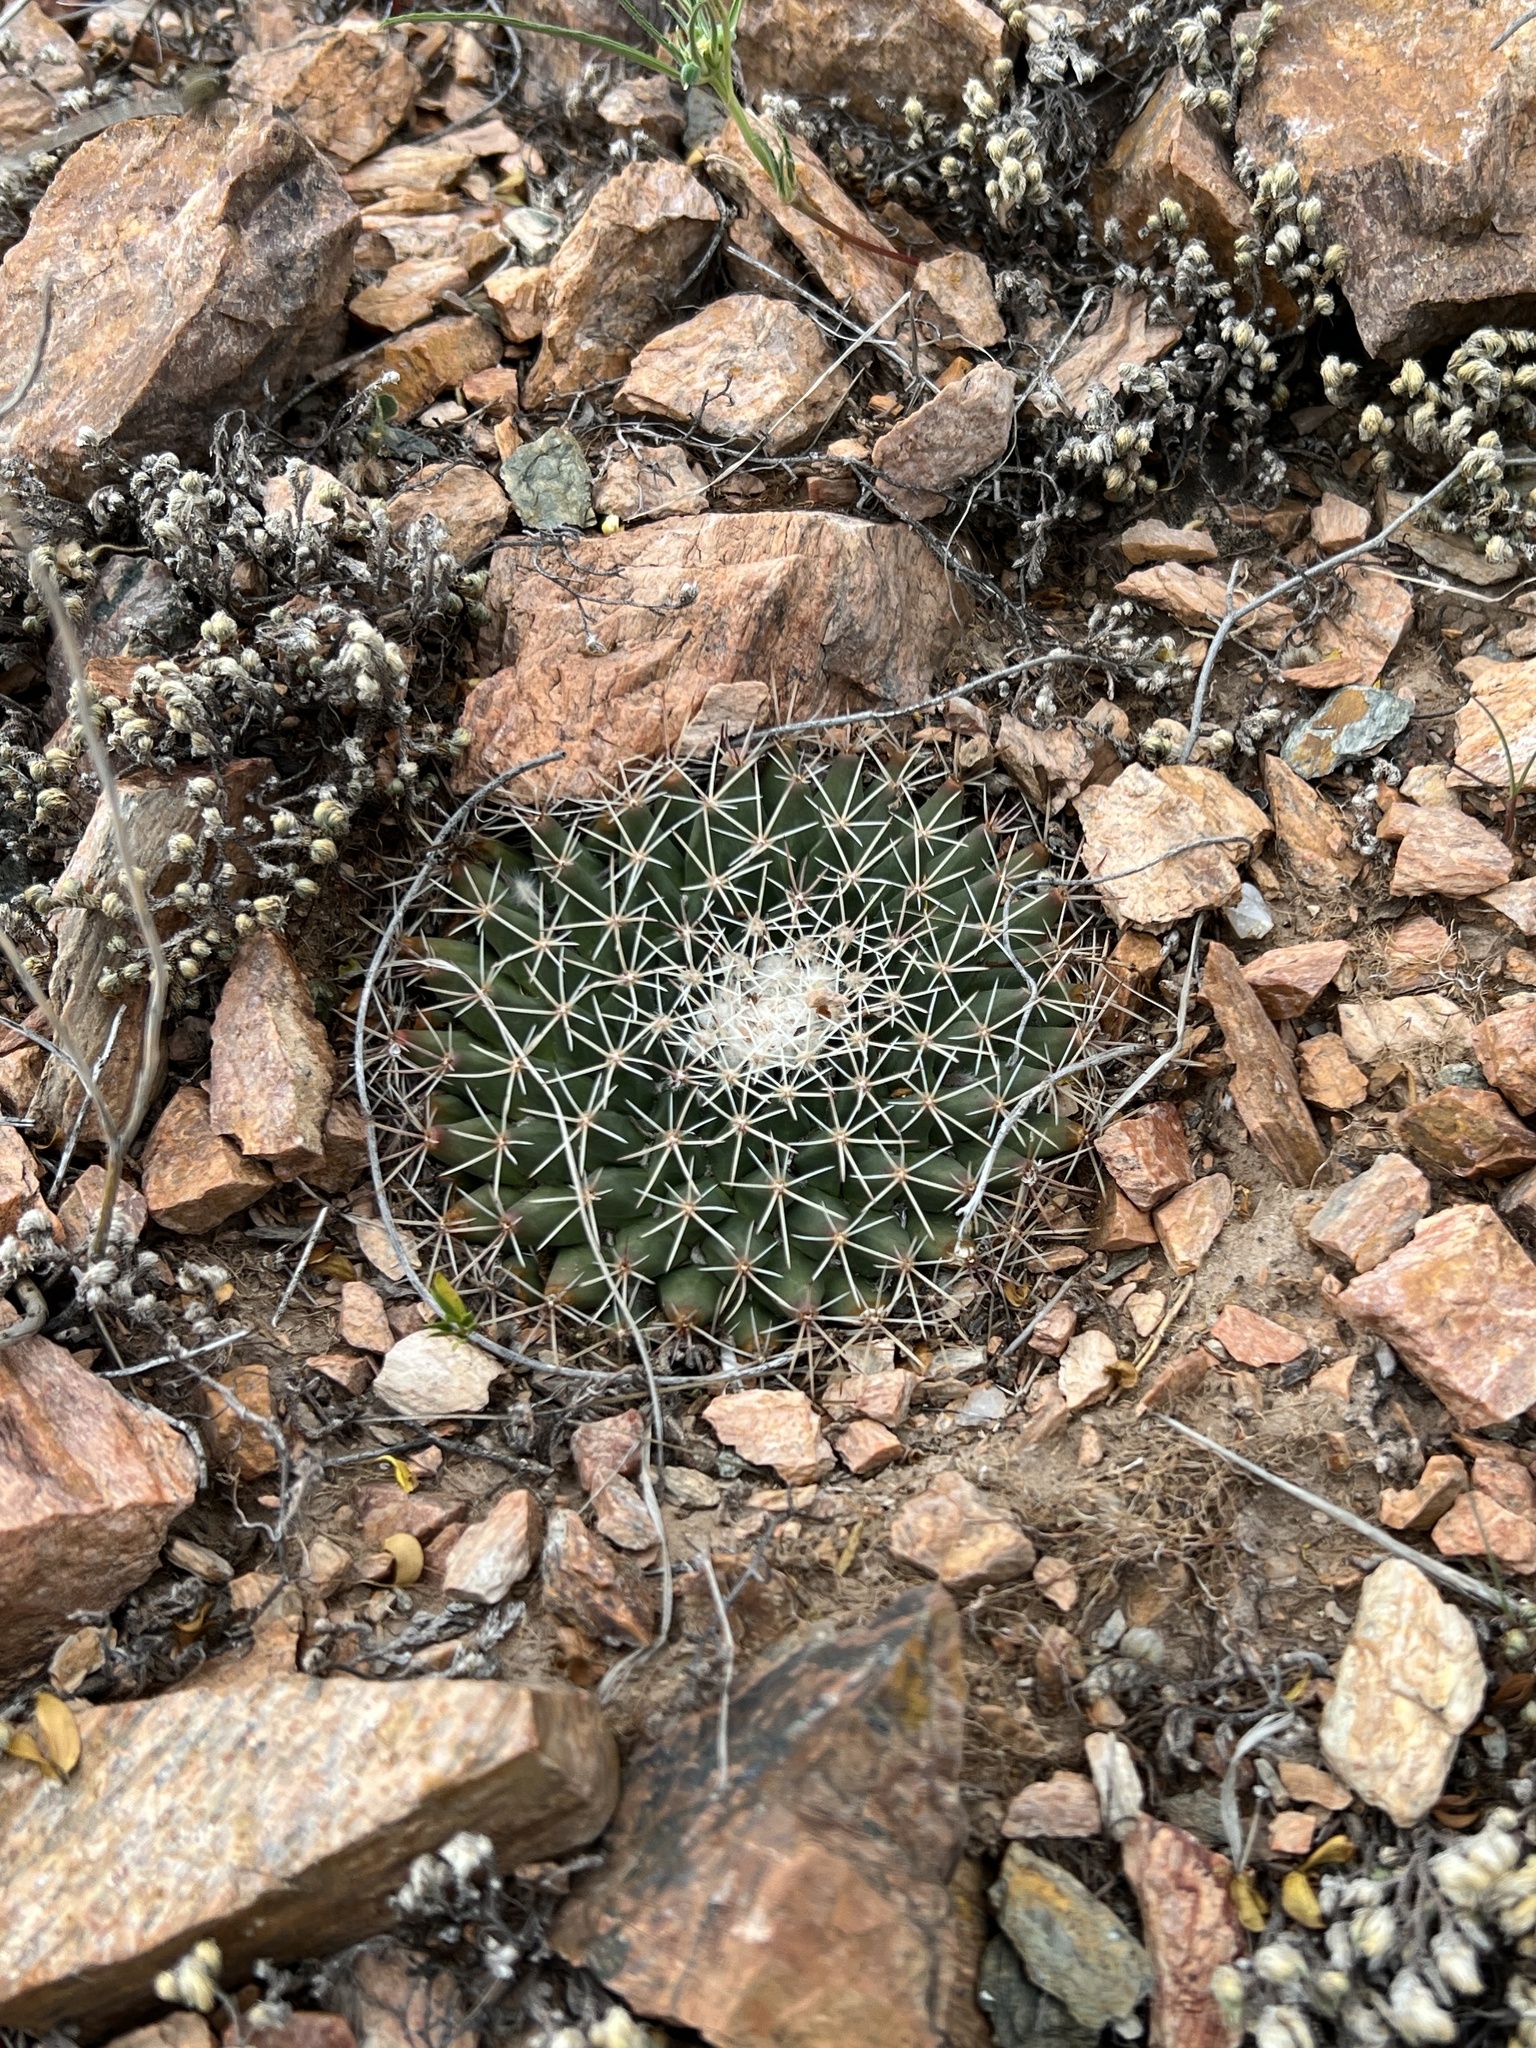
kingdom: Plantae
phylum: Tracheophyta
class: Magnoliopsida
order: Caryophyllales
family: Cactaceae
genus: Mammillaria
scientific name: Mammillaria heyderi
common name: Little nipple cactus
